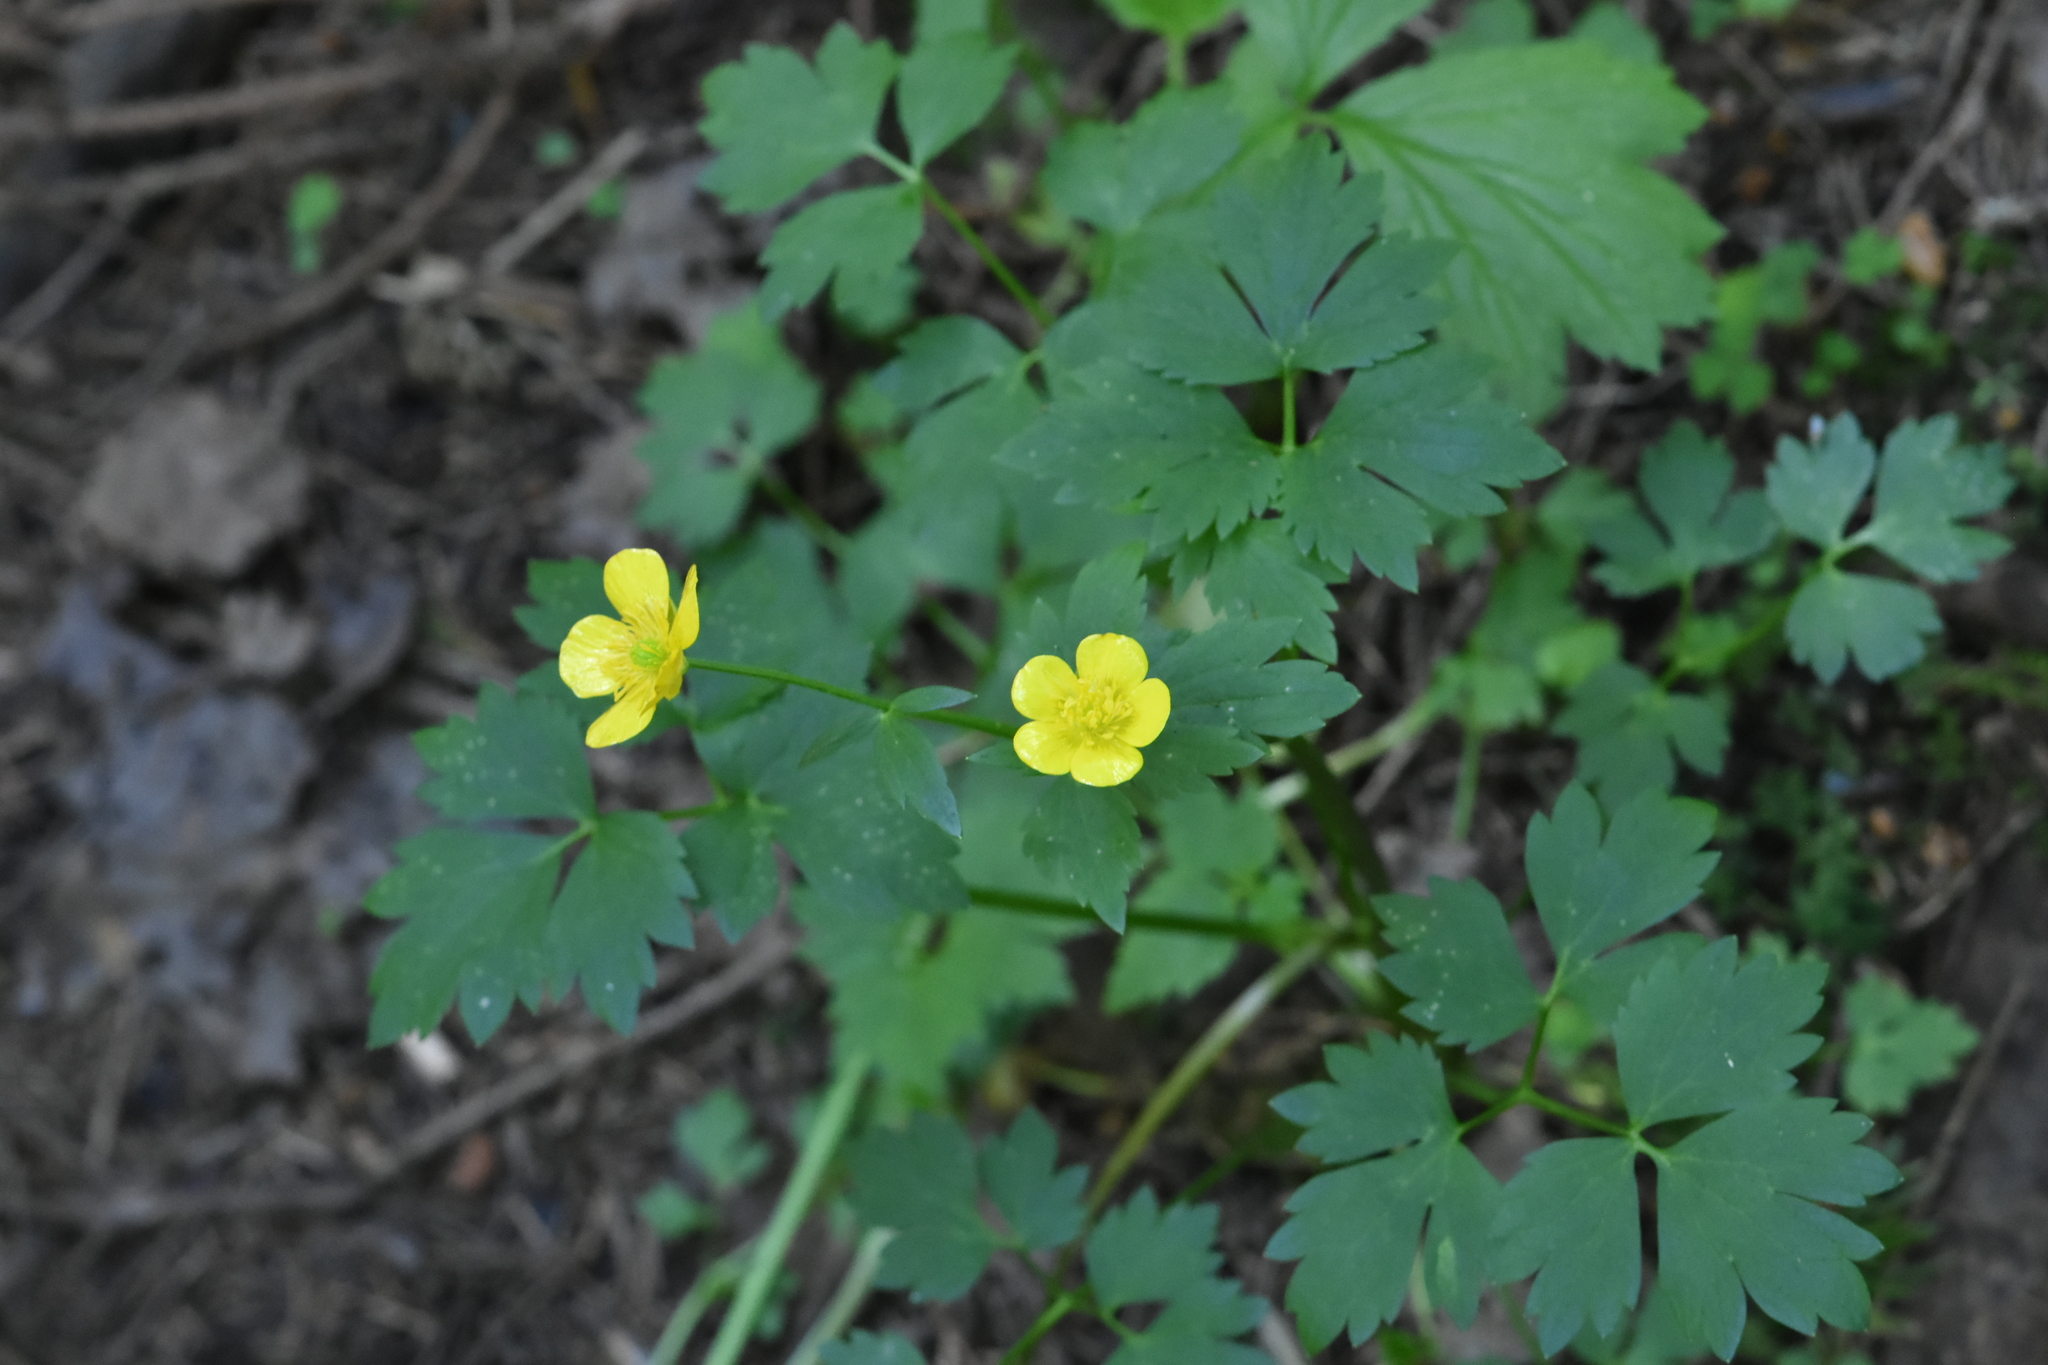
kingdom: Plantae
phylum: Tracheophyta
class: Magnoliopsida
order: Ranunculales
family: Ranunculaceae
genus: Ranunculus
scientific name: Ranunculus repens
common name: Creeping buttercup
